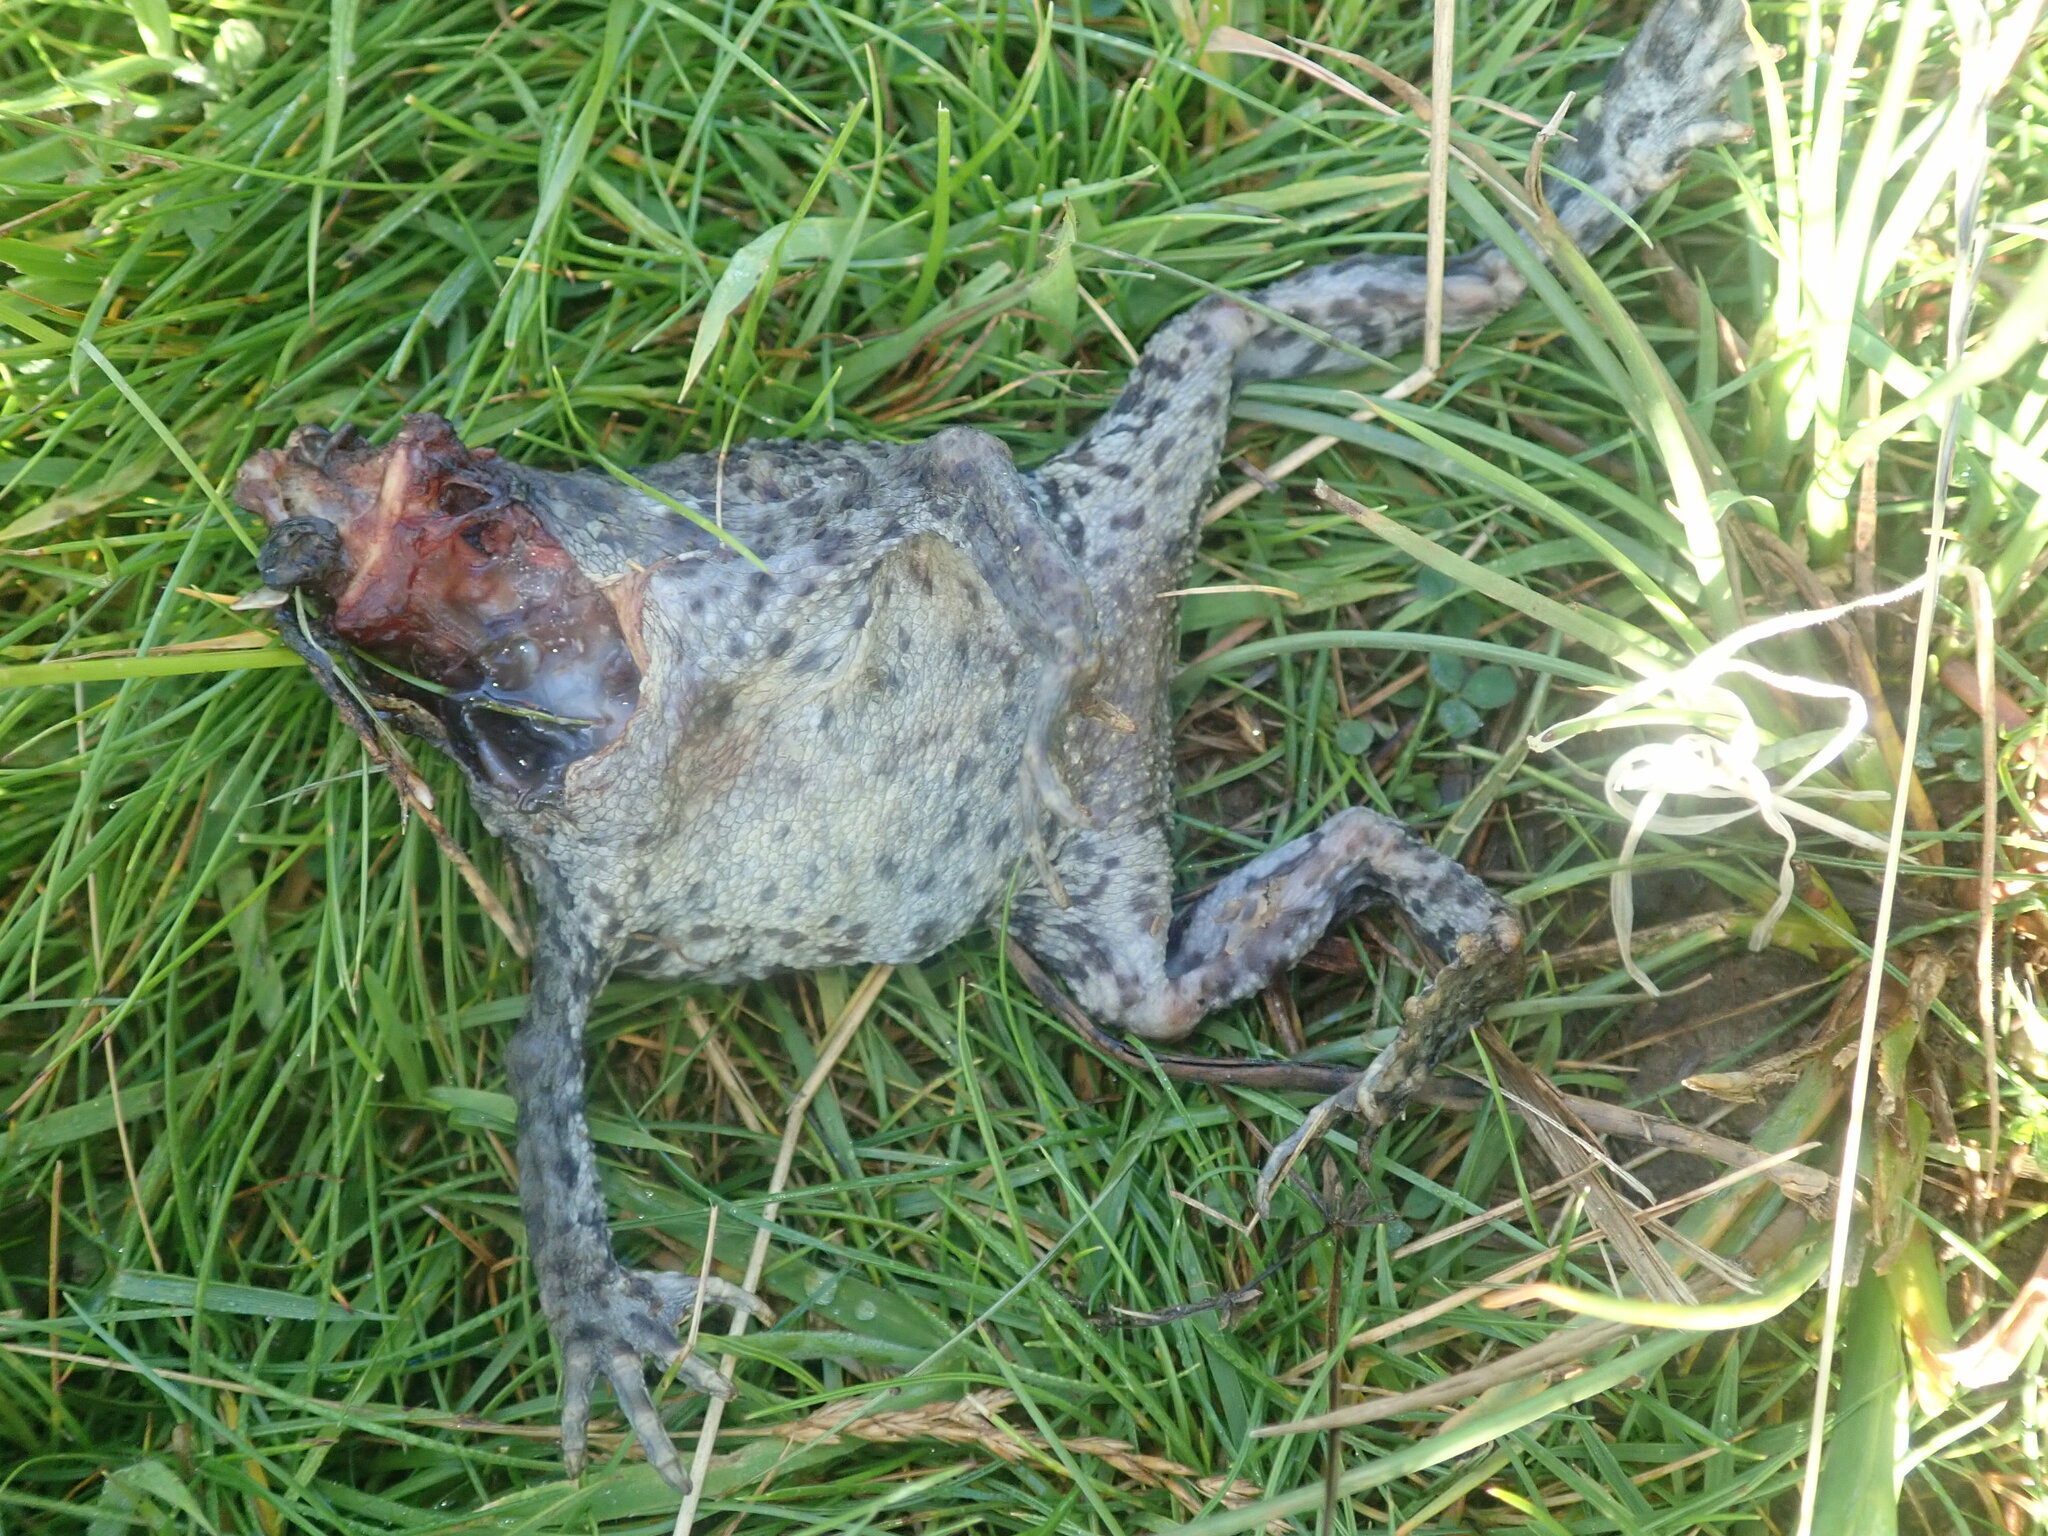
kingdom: Animalia
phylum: Chordata
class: Amphibia
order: Anura
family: Bufonidae
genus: Bufo
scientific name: Bufo bufo
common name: Common toad
